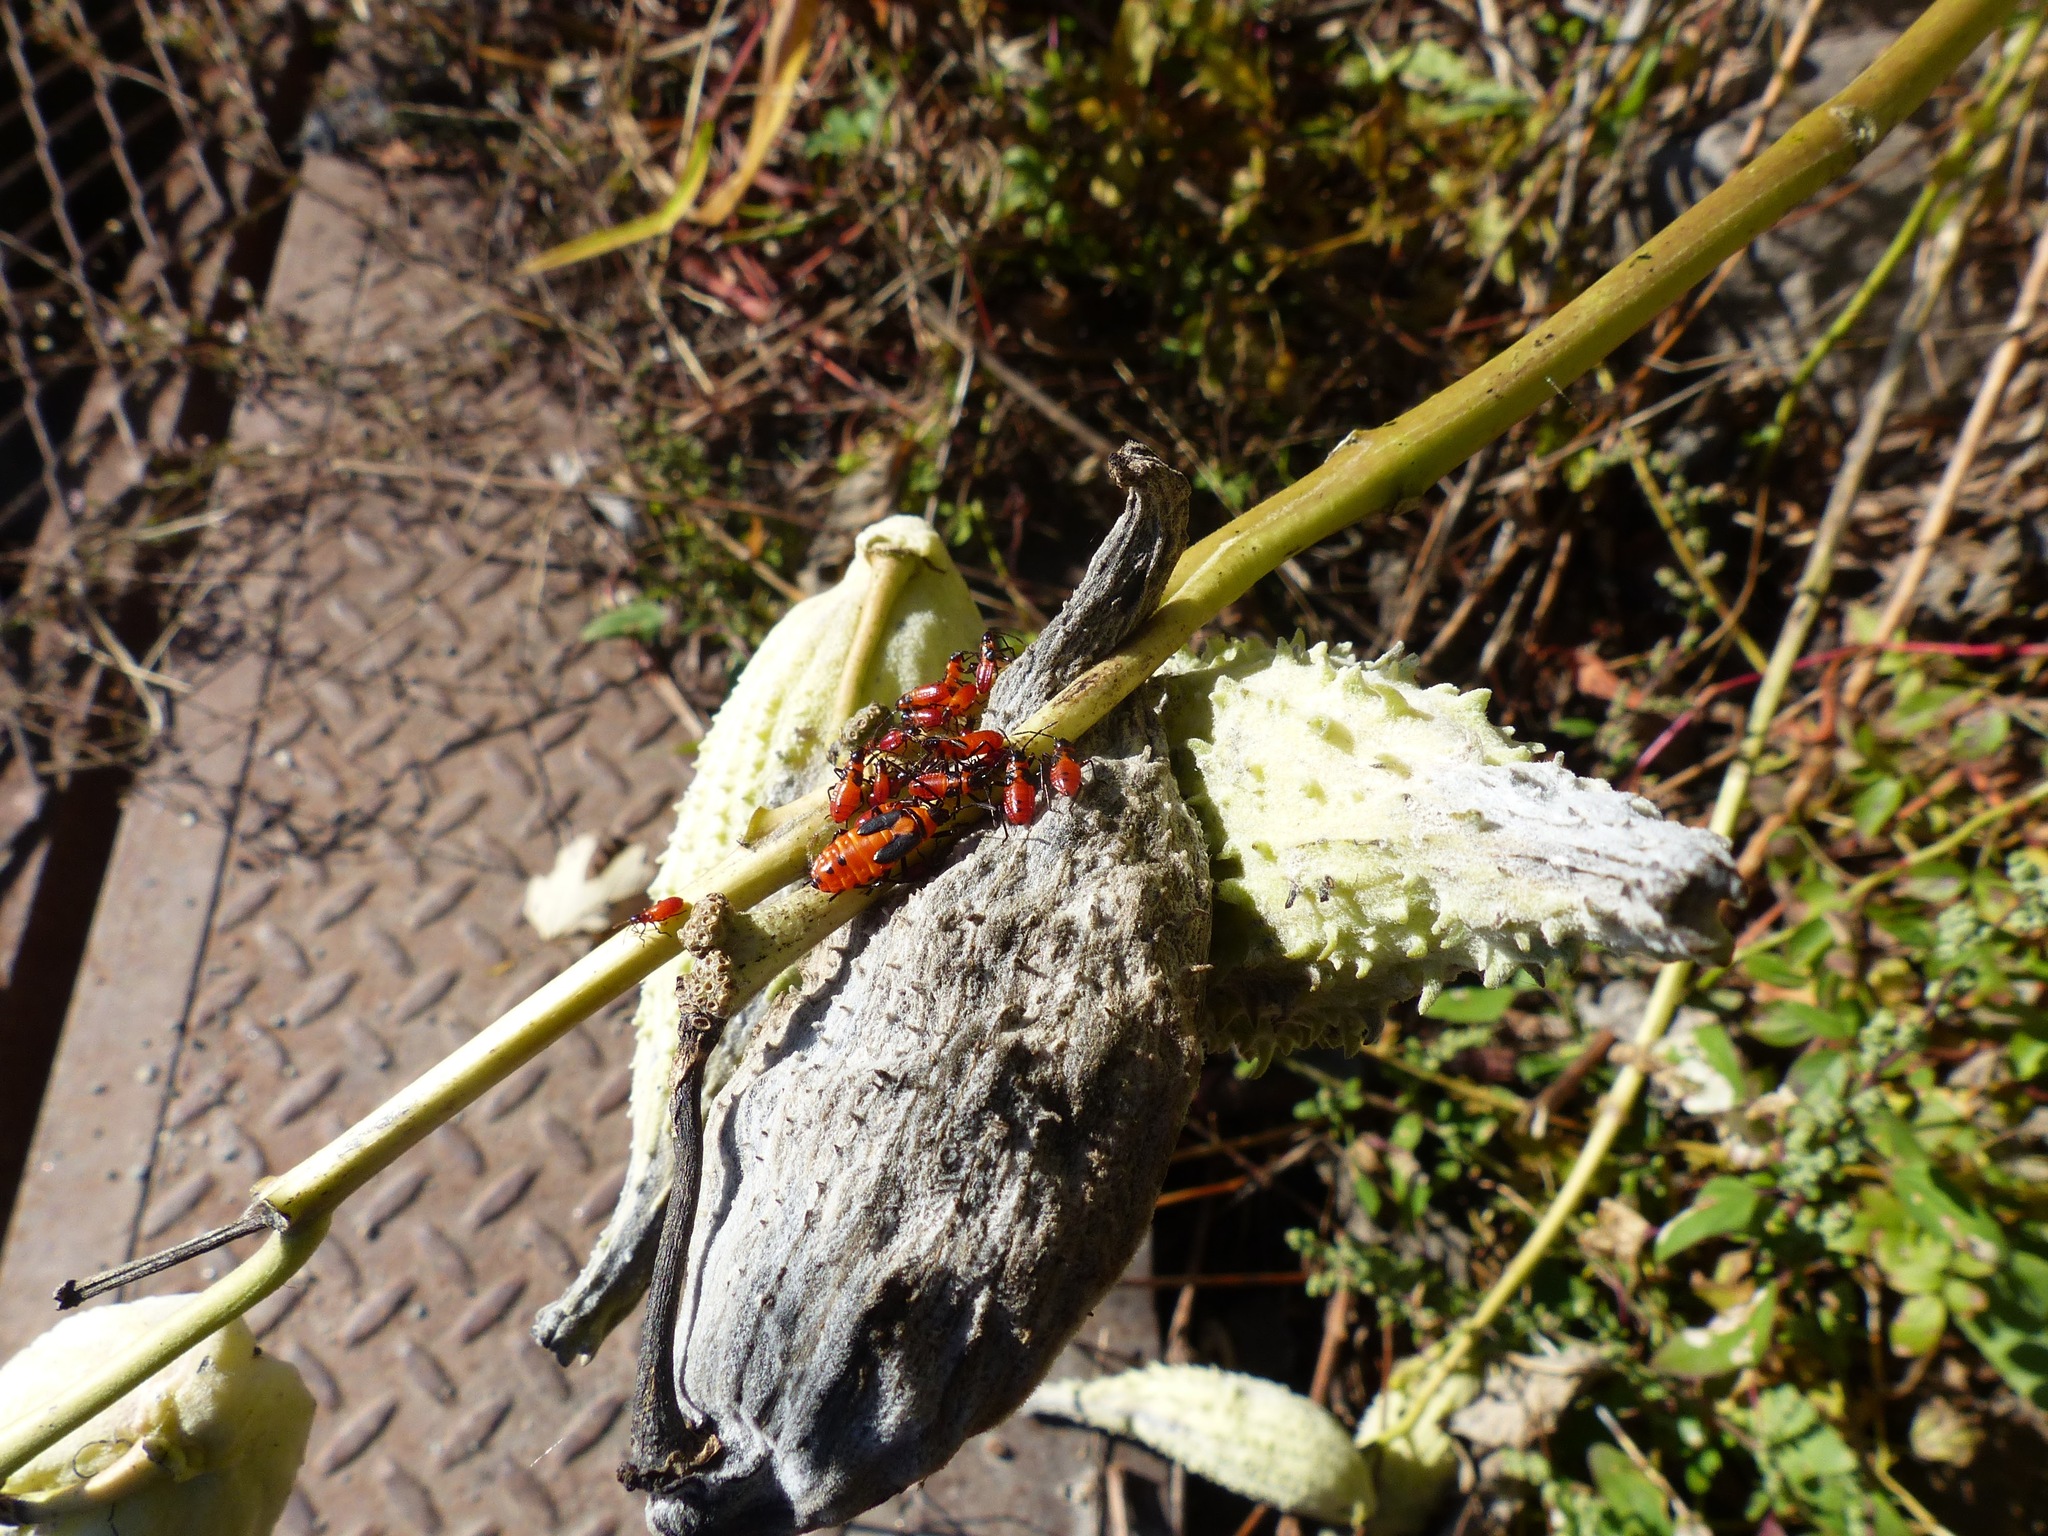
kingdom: Animalia
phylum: Arthropoda
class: Insecta
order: Hemiptera
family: Lygaeidae
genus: Oncopeltus
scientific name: Oncopeltus fasciatus
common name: Large milkweed bug
